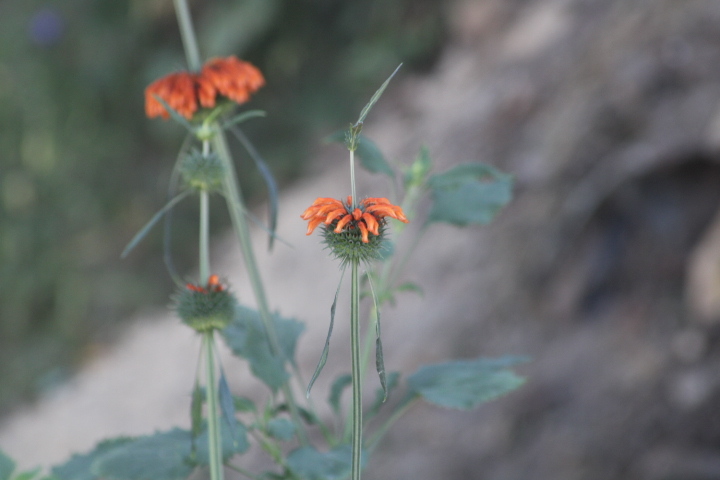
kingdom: Plantae
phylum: Tracheophyta
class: Magnoliopsida
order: Lamiales
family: Lamiaceae
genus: Leonotis
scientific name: Leonotis nepetifolia
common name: Christmas candlestick
